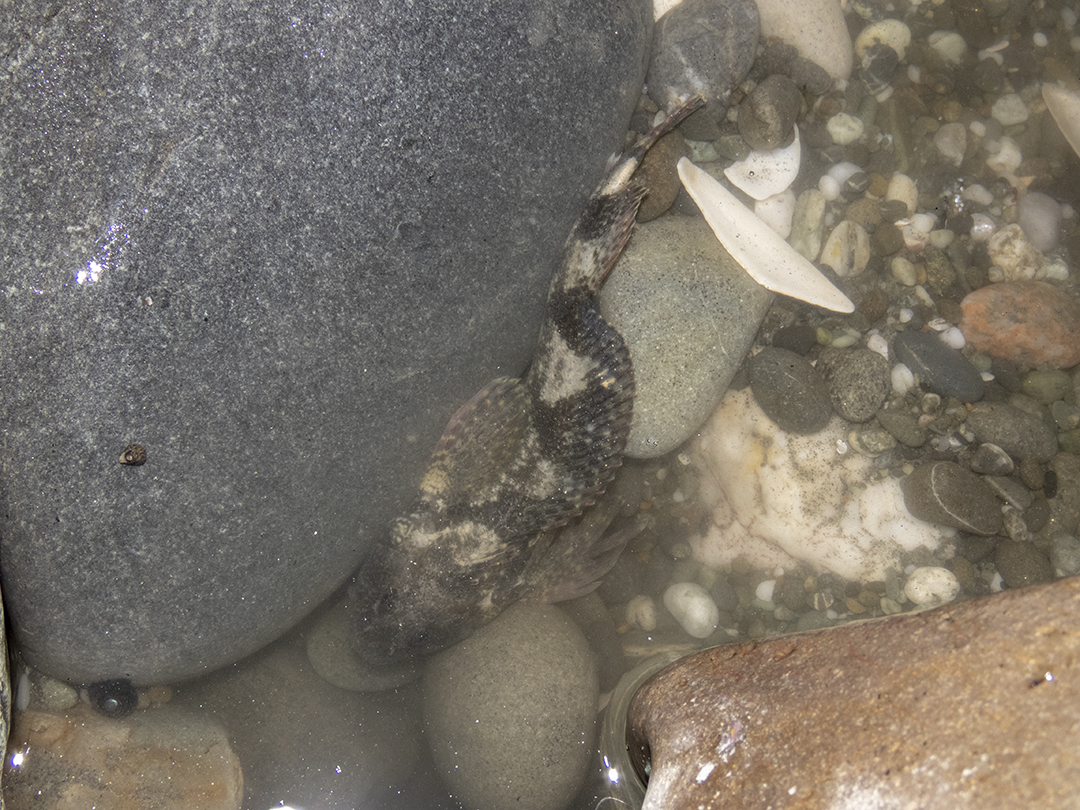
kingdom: Animalia
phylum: Chordata
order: Perciformes
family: Tripterygiidae
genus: Blennodon
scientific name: Blennodon dorsalis
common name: Giant triplefin
